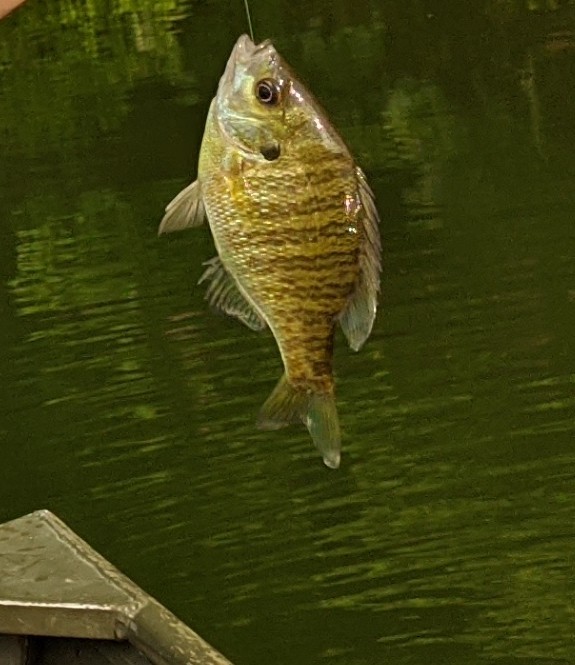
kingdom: Animalia
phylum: Chordata
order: Perciformes
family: Centrarchidae
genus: Lepomis
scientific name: Lepomis macrochirus
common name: Bluegill
